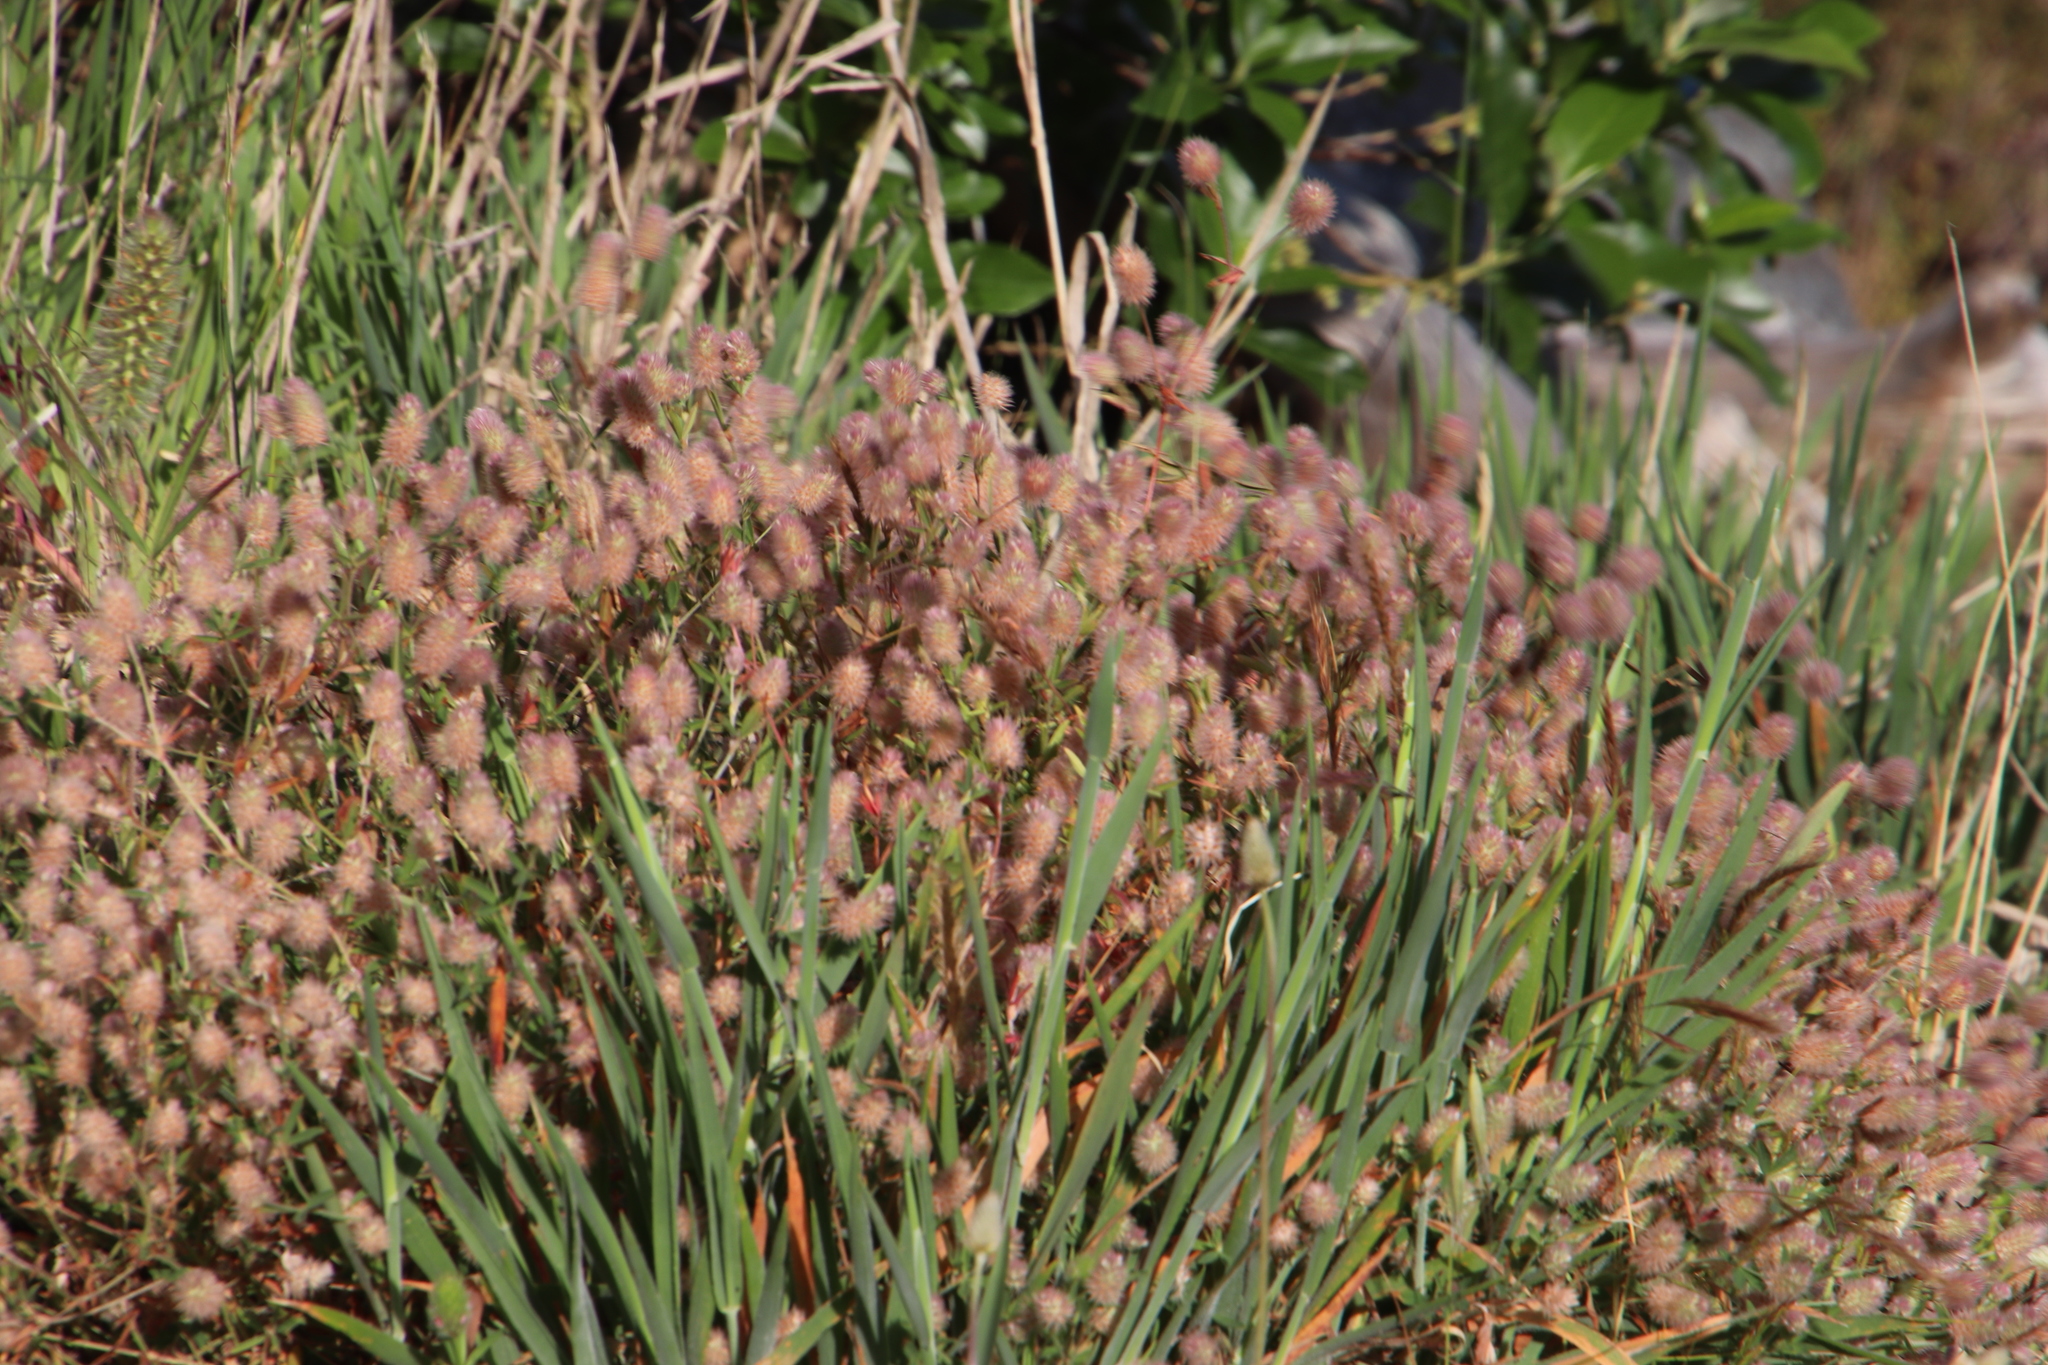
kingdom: Plantae
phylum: Tracheophyta
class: Magnoliopsida
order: Fabales
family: Fabaceae
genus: Trifolium
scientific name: Trifolium arvense
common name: Hare's-foot clover
